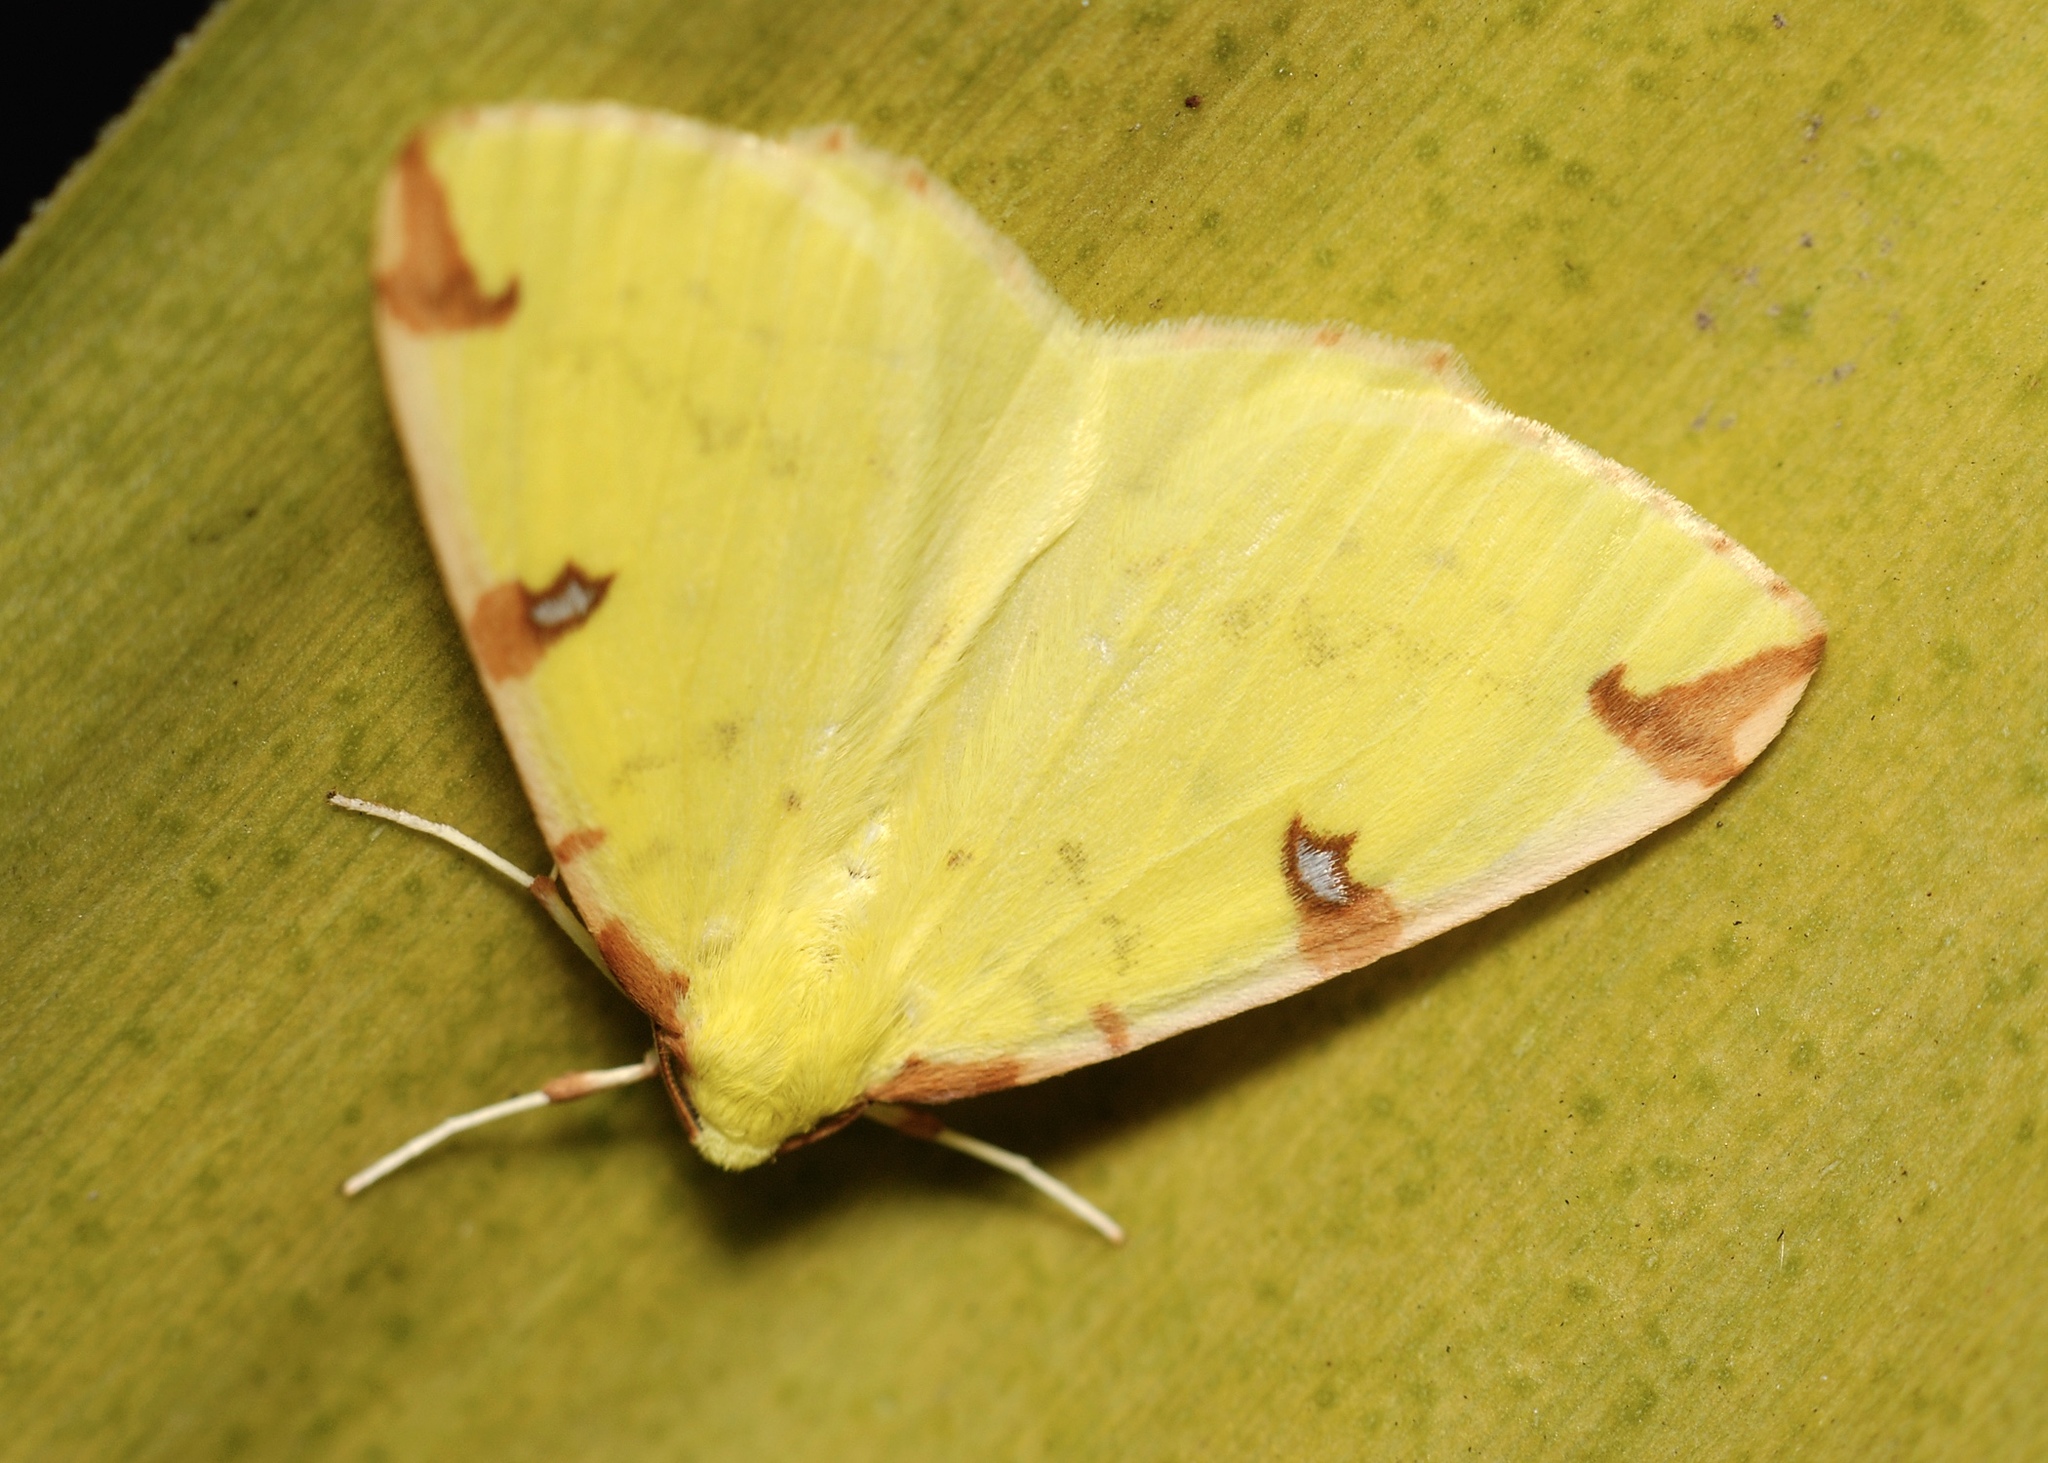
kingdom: Animalia
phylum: Arthropoda
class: Insecta
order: Lepidoptera
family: Geometridae
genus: Opisthograptis
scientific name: Opisthograptis luteolata
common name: Brimstone moth
